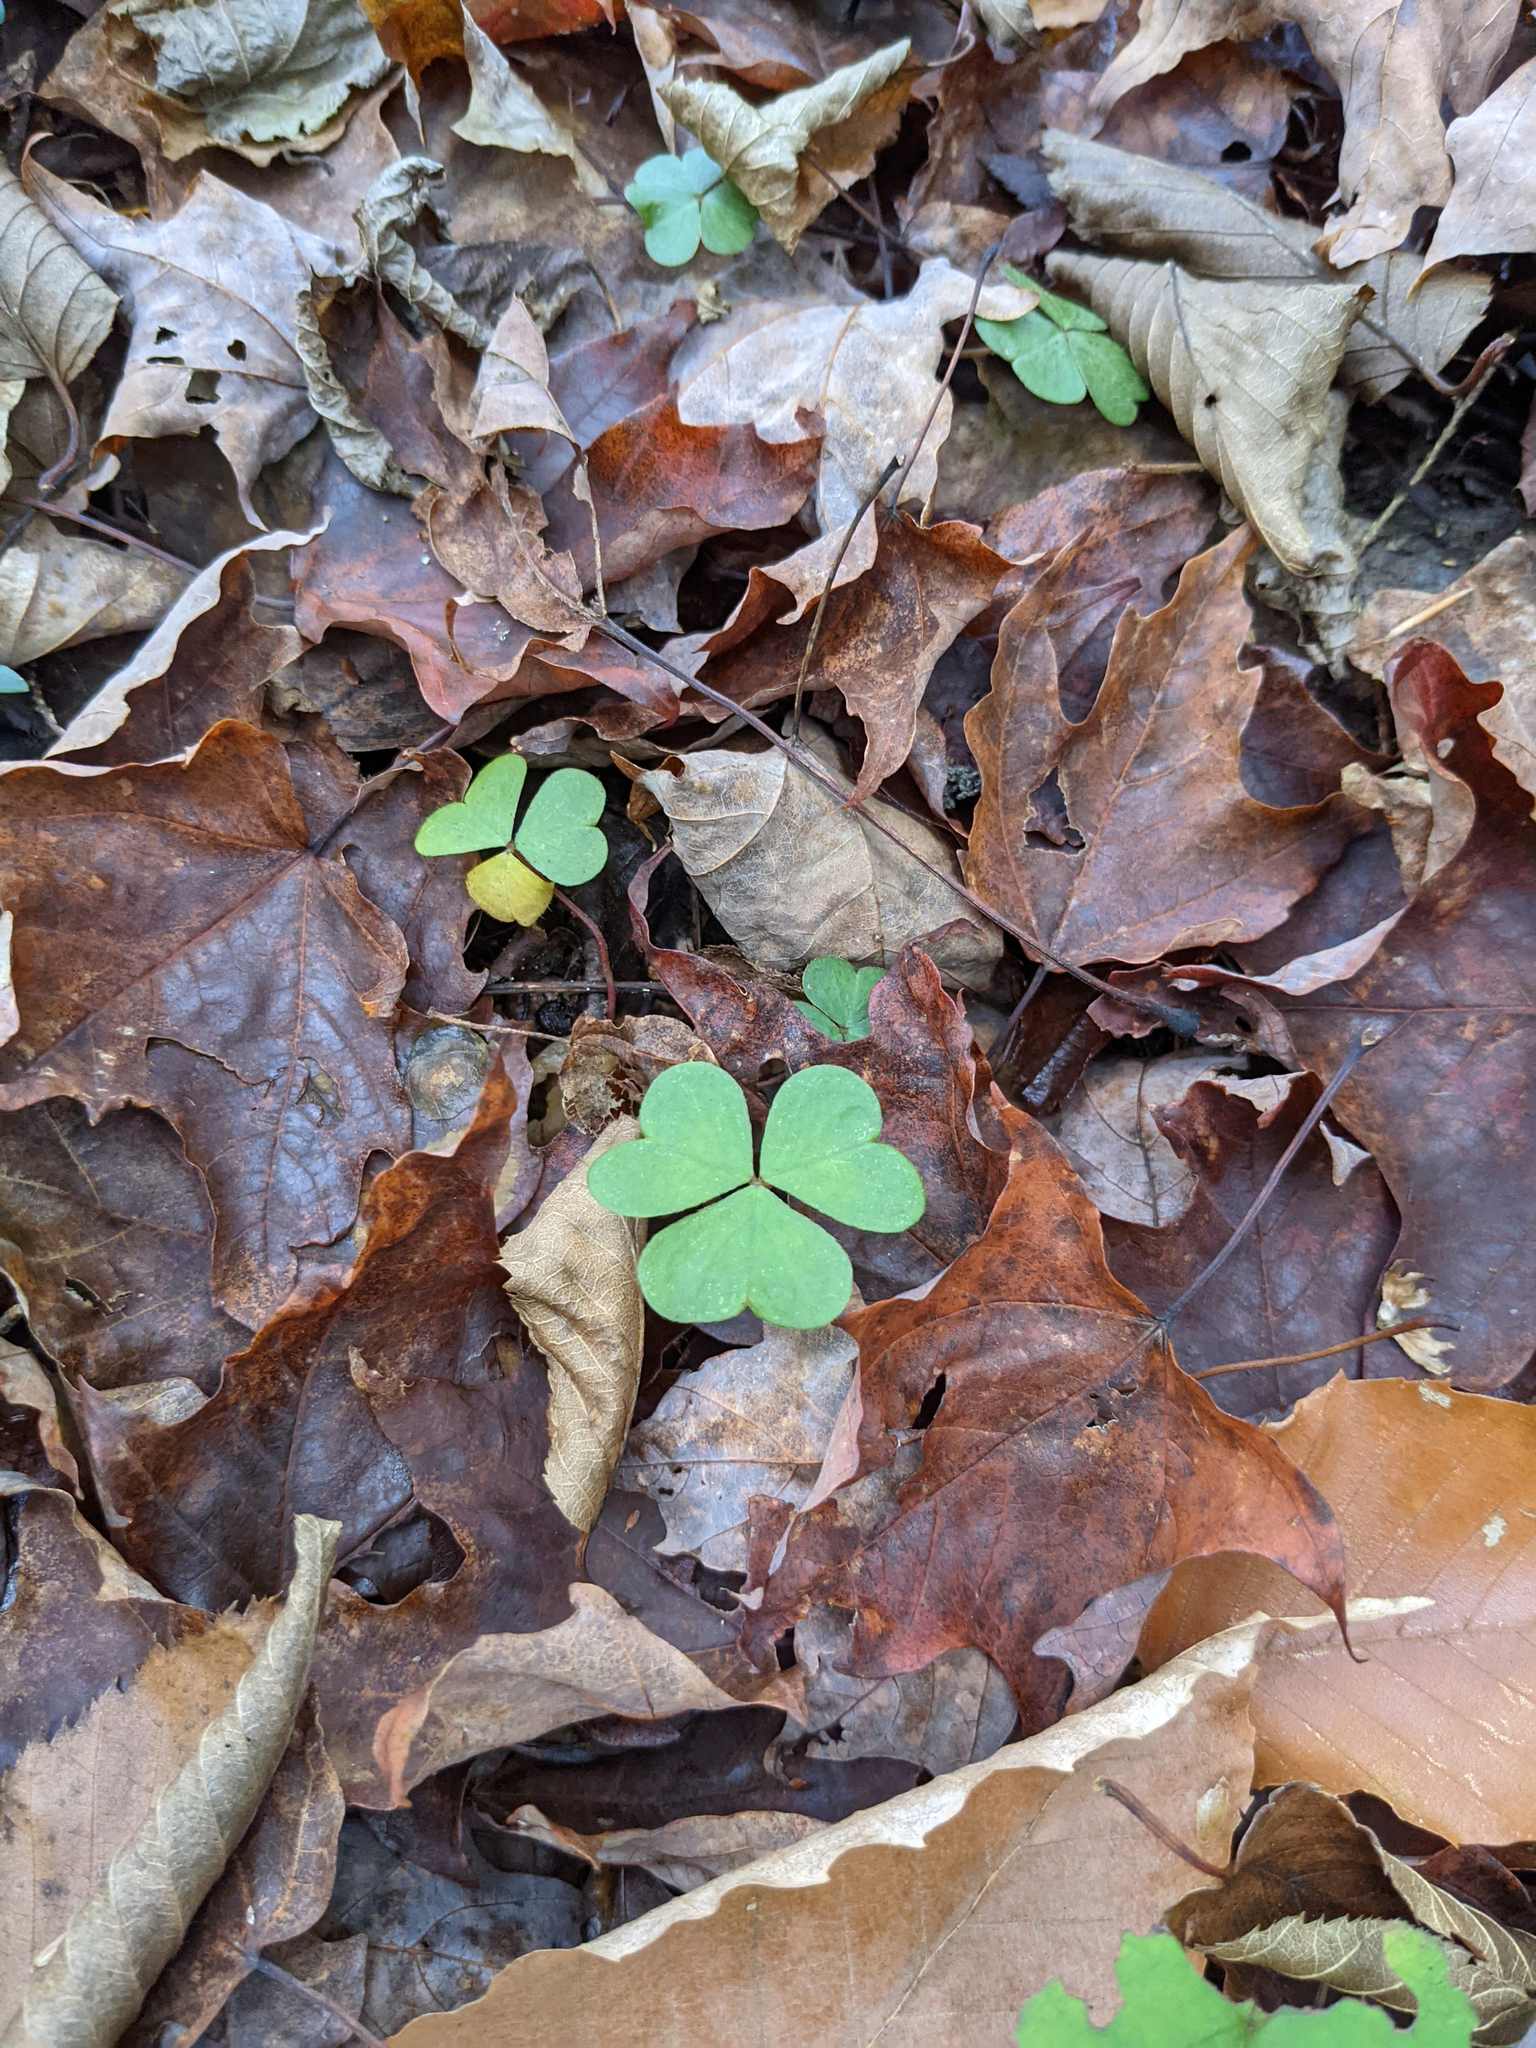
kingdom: Plantae
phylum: Tracheophyta
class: Magnoliopsida
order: Oxalidales
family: Oxalidaceae
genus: Oxalis
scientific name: Oxalis montana
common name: American wood-sorrel
